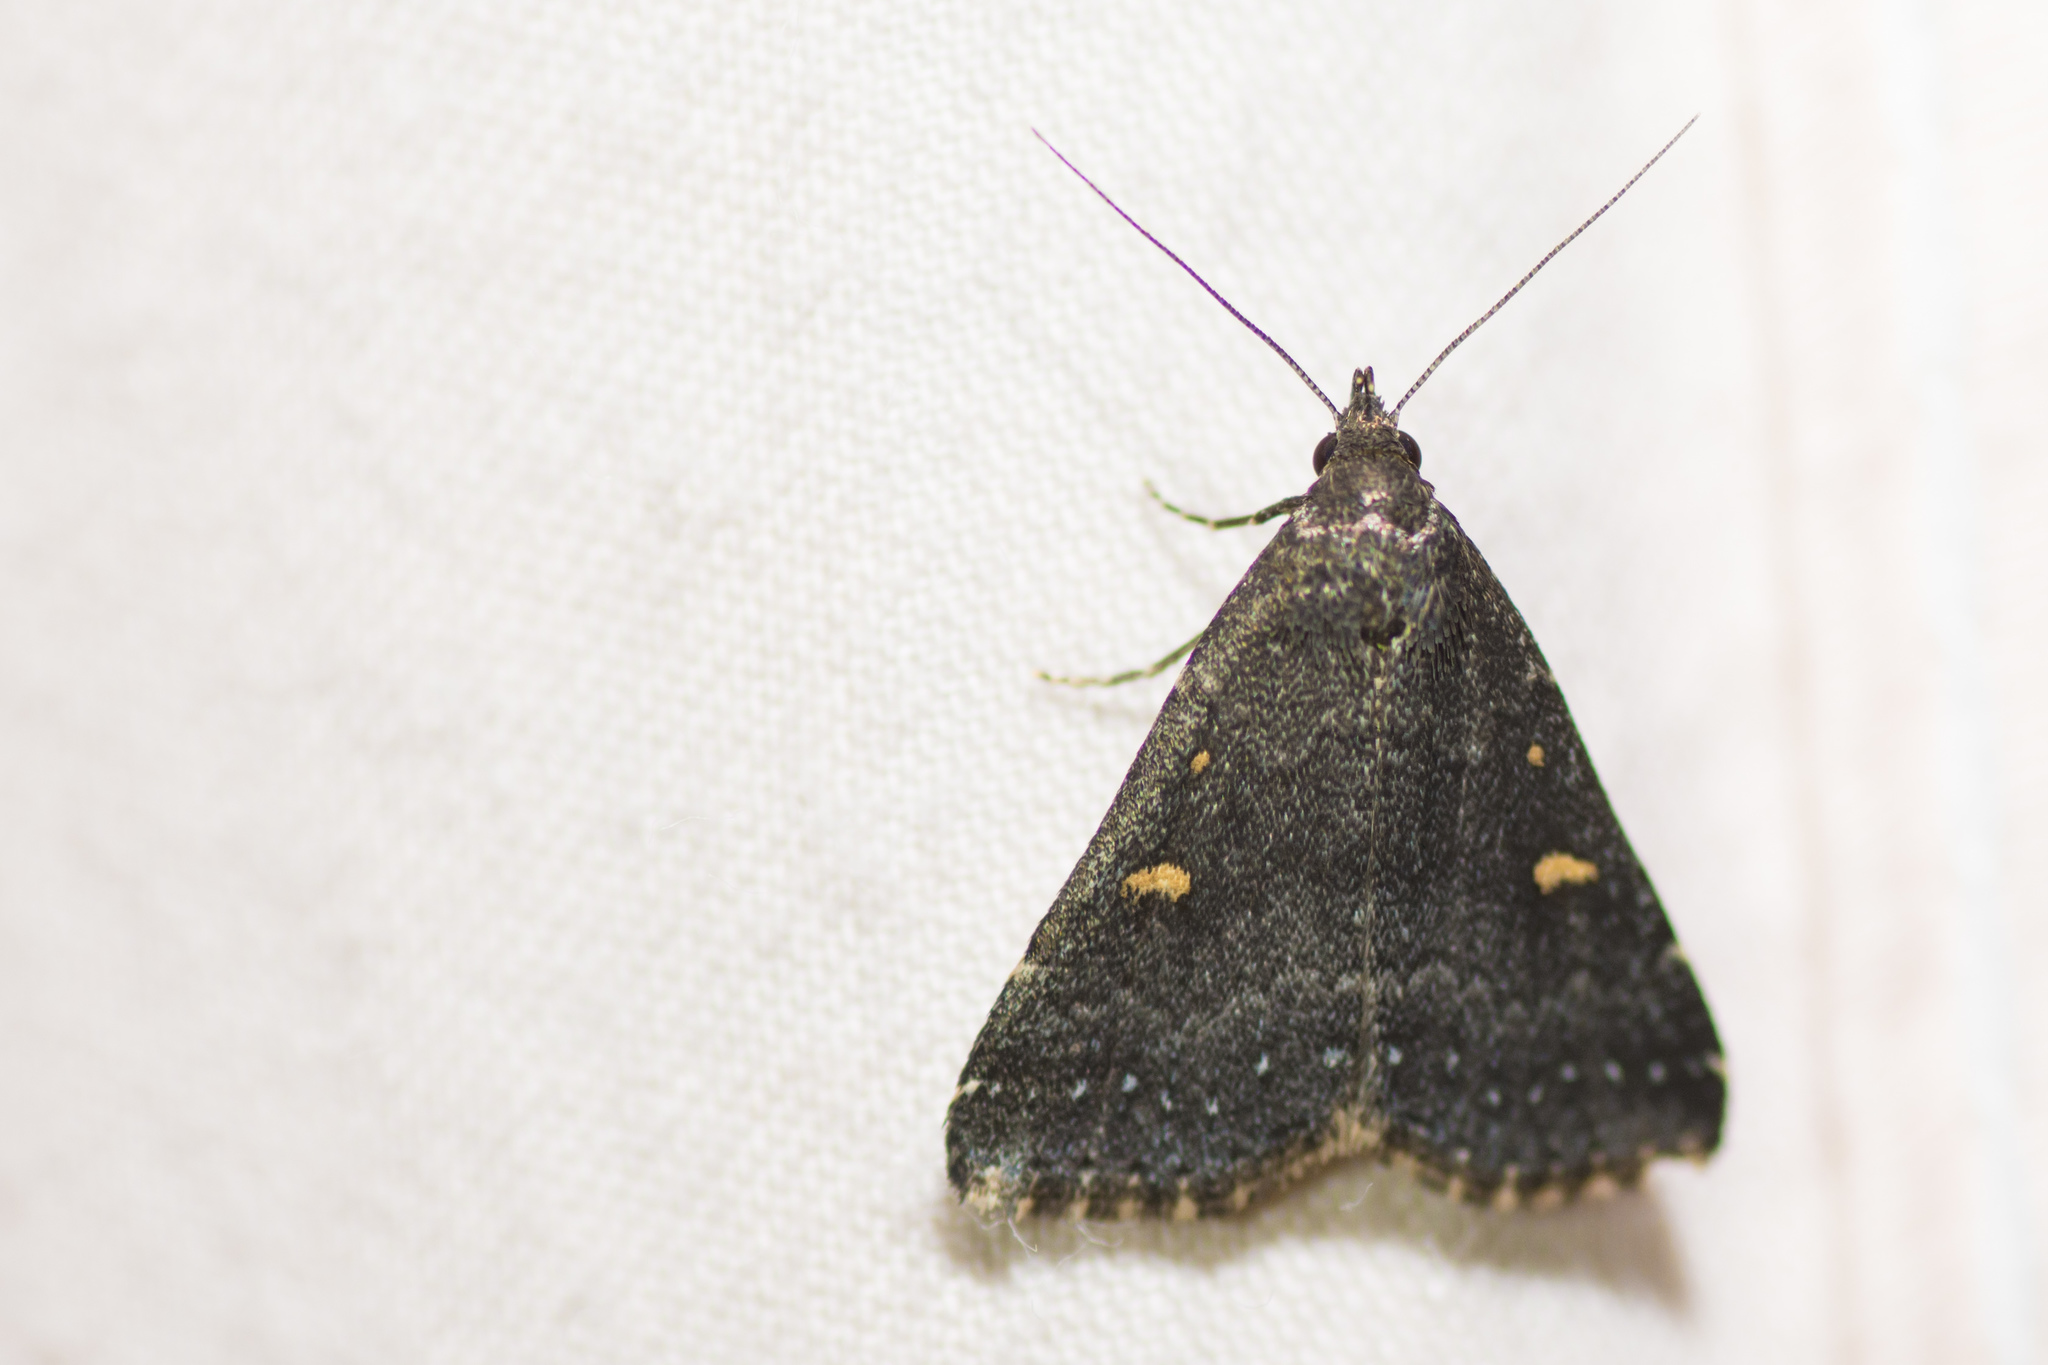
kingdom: Animalia
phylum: Arthropoda
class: Insecta
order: Lepidoptera
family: Erebidae
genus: Tetanolita
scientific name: Tetanolita mynesalis
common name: Smoky tetanolita moth
